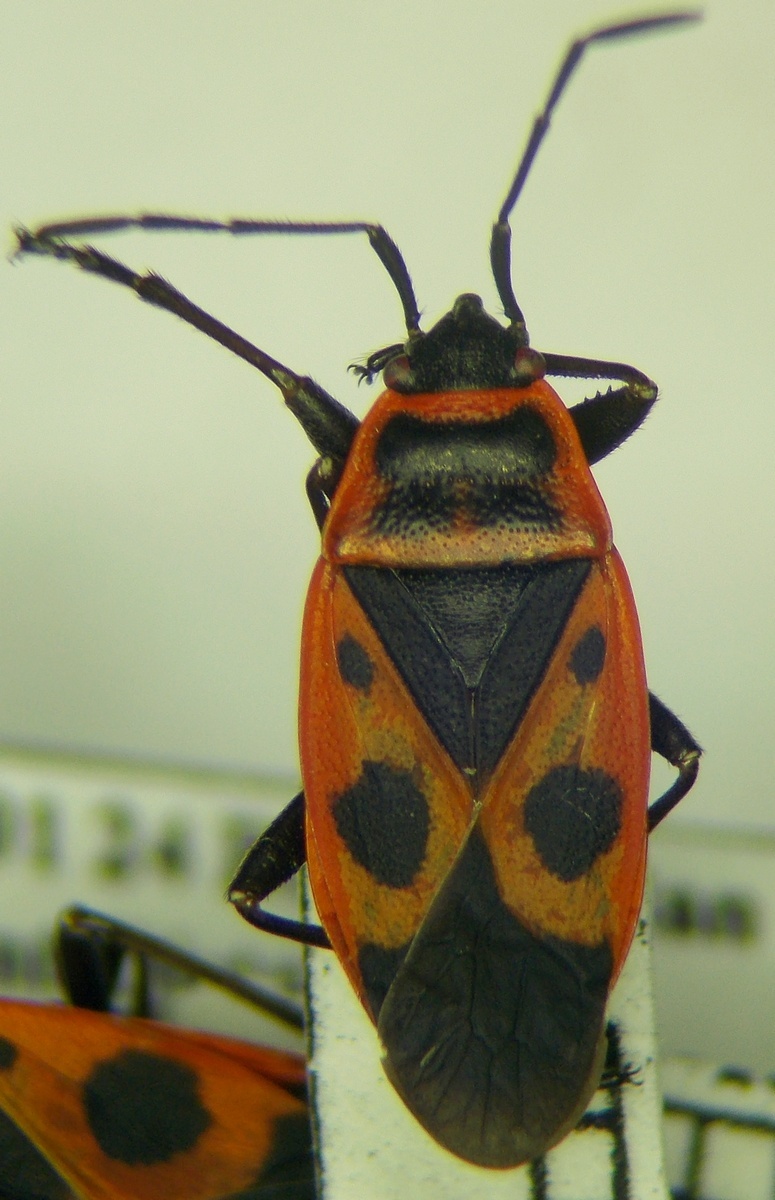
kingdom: Animalia
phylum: Arthropoda
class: Insecta
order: Hemiptera
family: Pyrrhocoridae
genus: Pyrrhocoris
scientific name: Pyrrhocoris apterus
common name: Firebug
